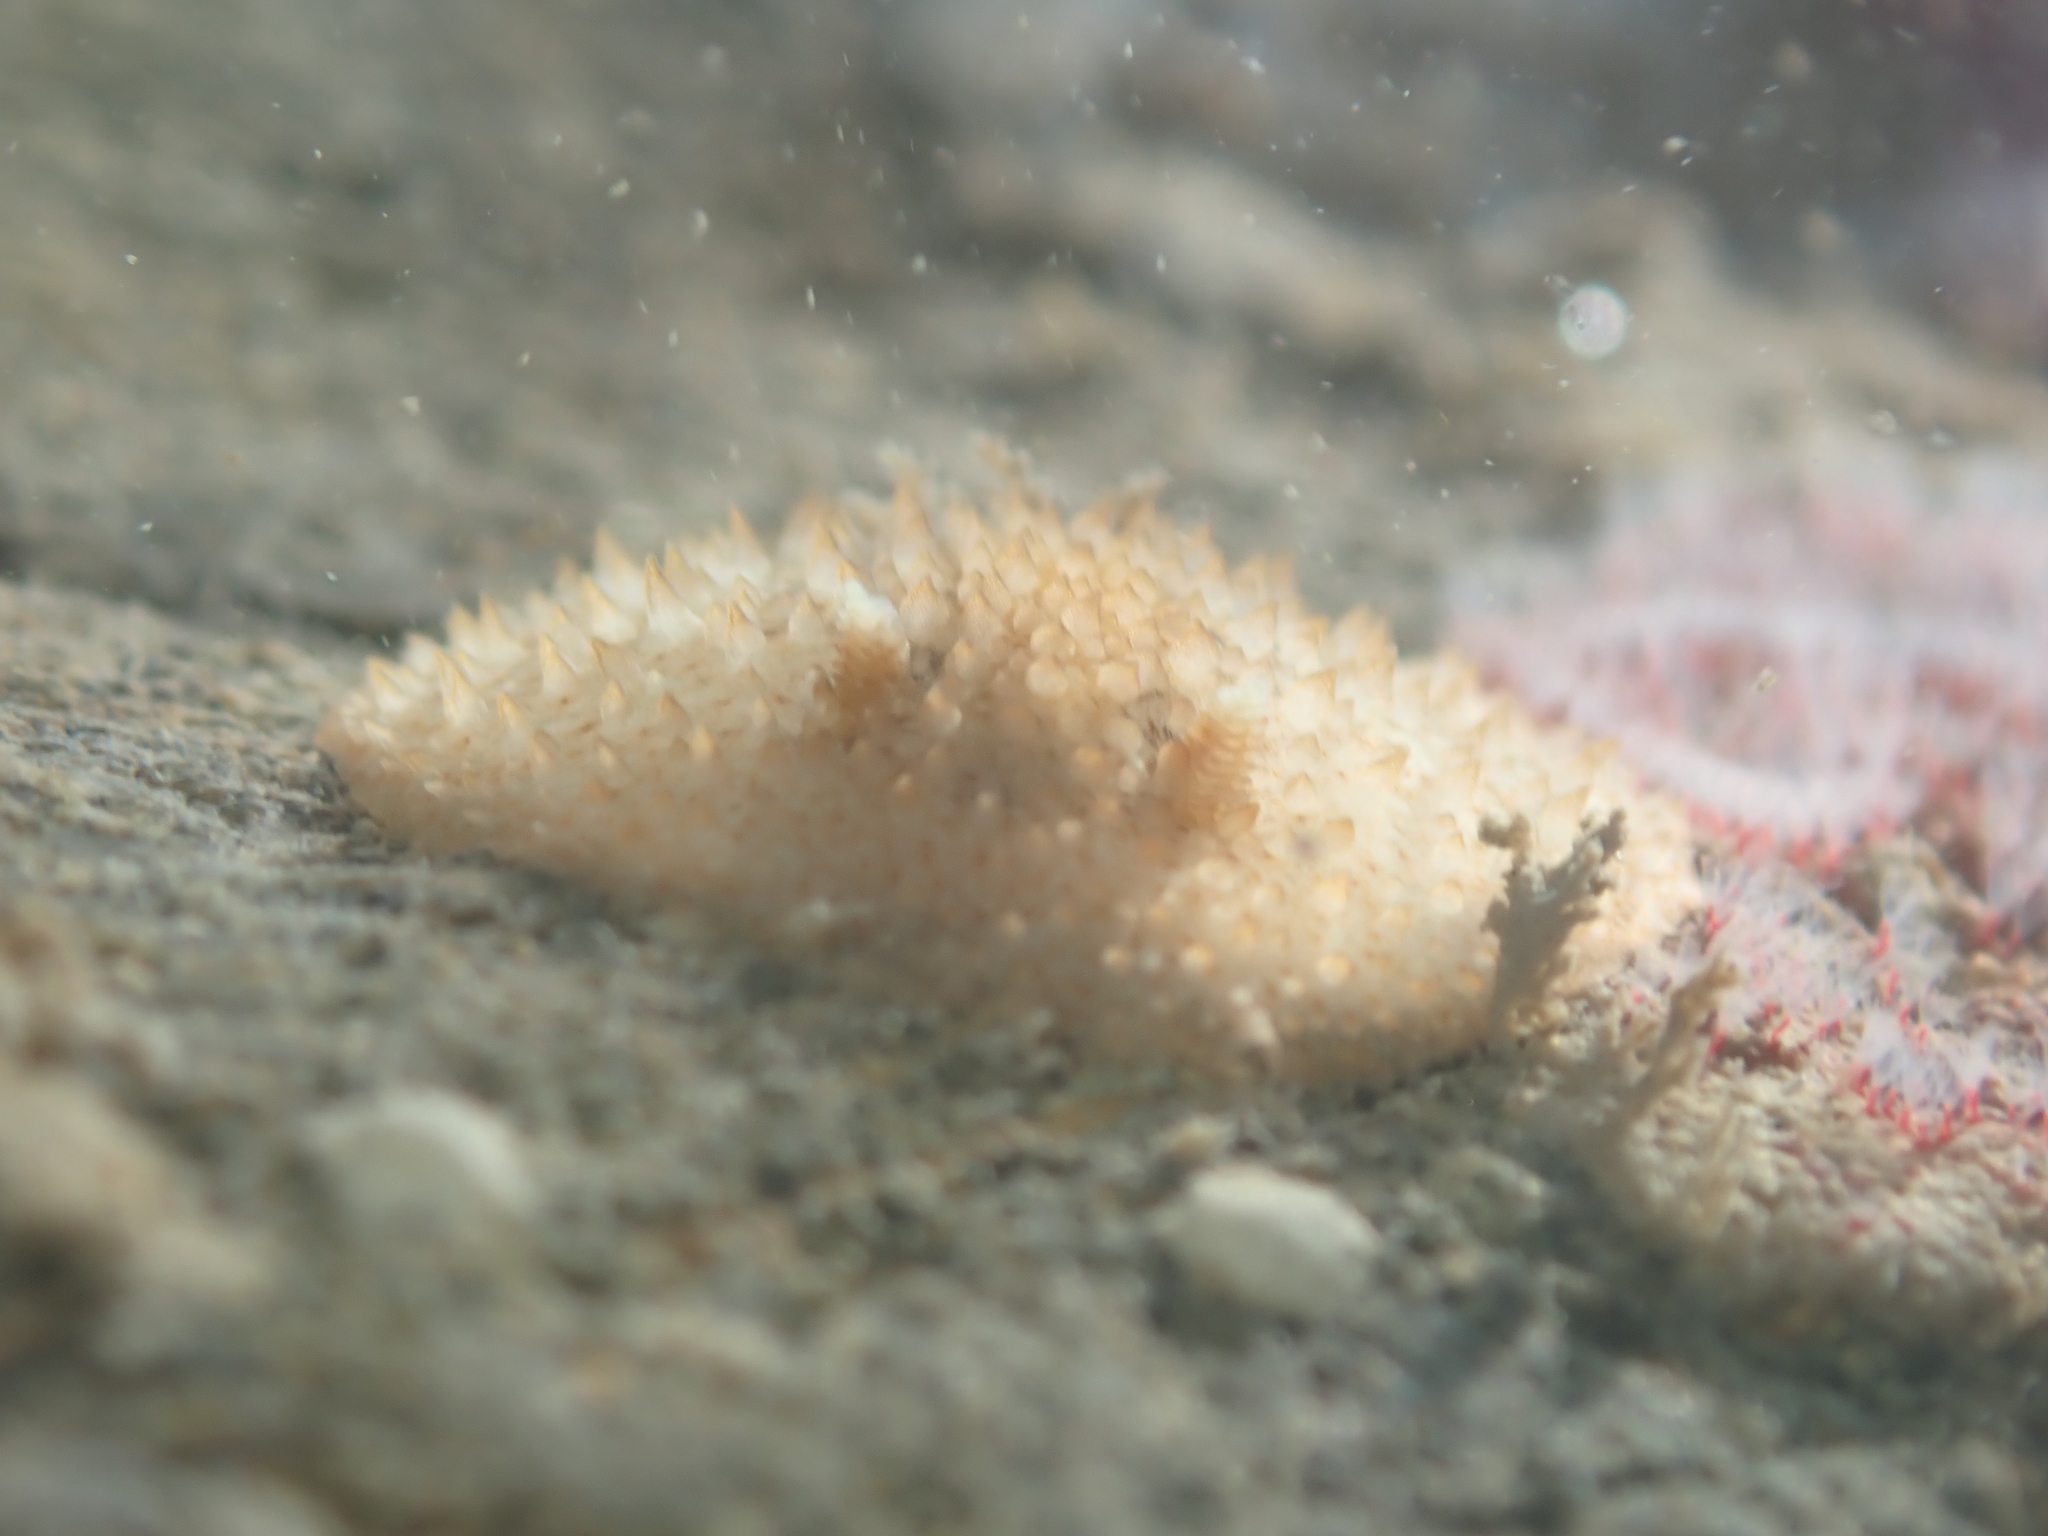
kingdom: Animalia
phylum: Mollusca
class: Gastropoda
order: Nudibranchia
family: Onchidorididae
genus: Acanthodoris
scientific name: Acanthodoris mollicella
